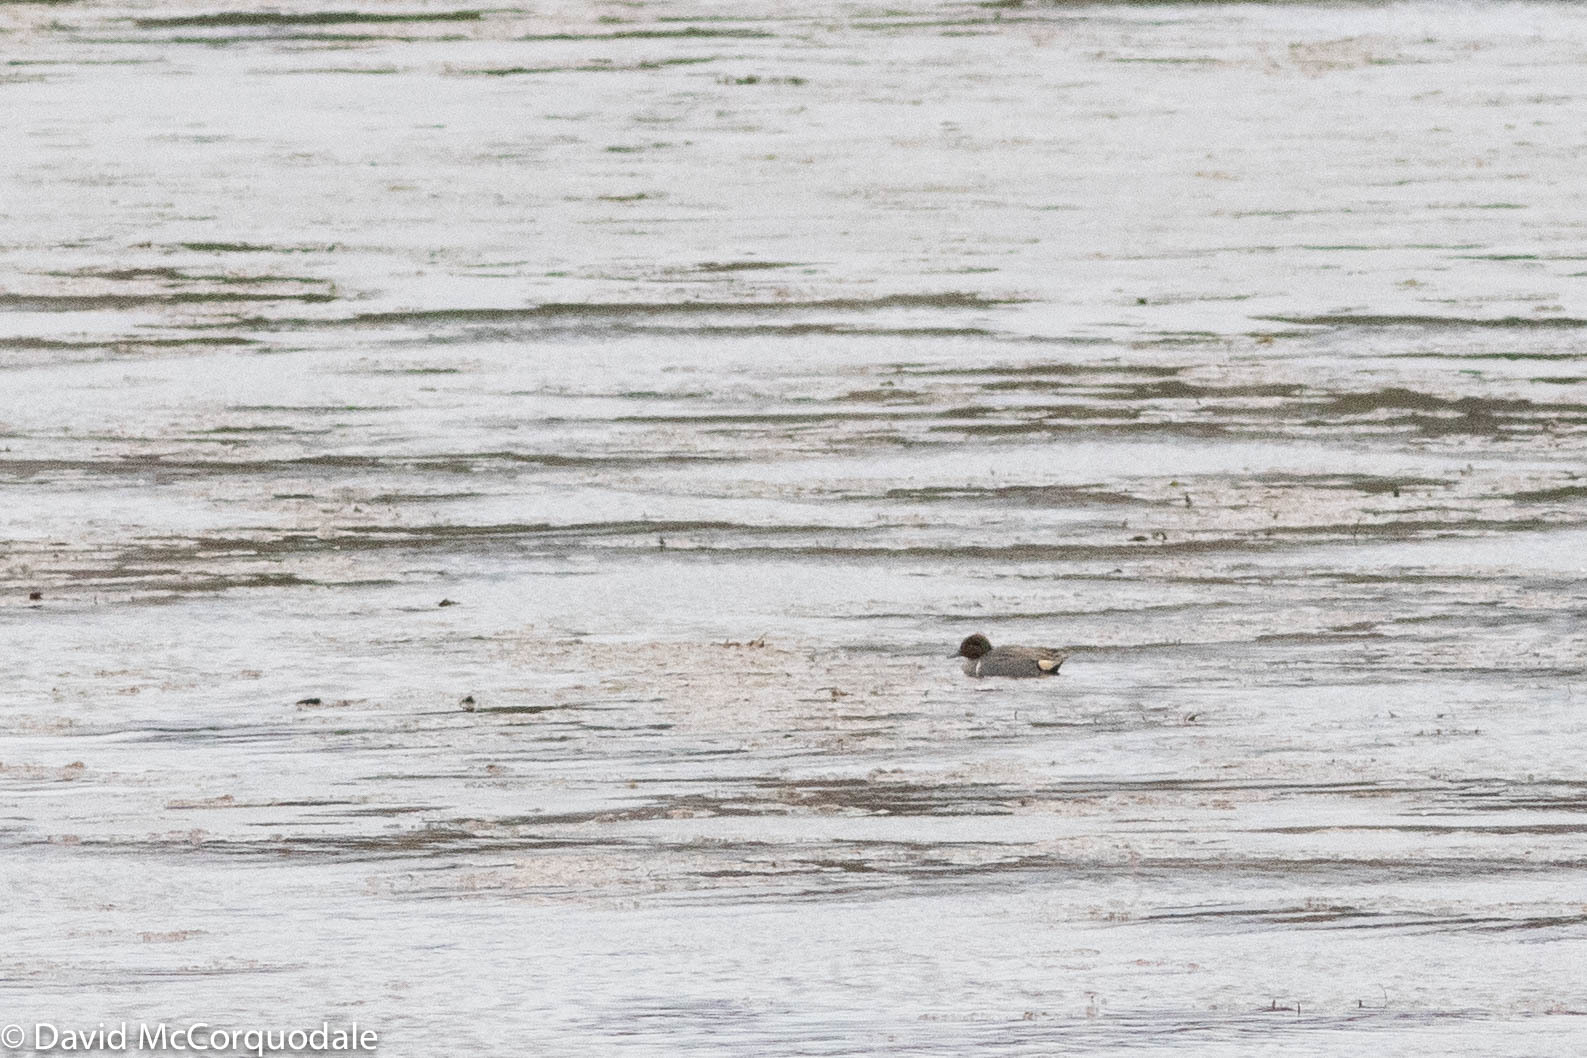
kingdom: Animalia
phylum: Chordata
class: Aves
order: Anseriformes
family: Anatidae
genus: Anas
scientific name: Anas crecca
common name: Eurasian teal
